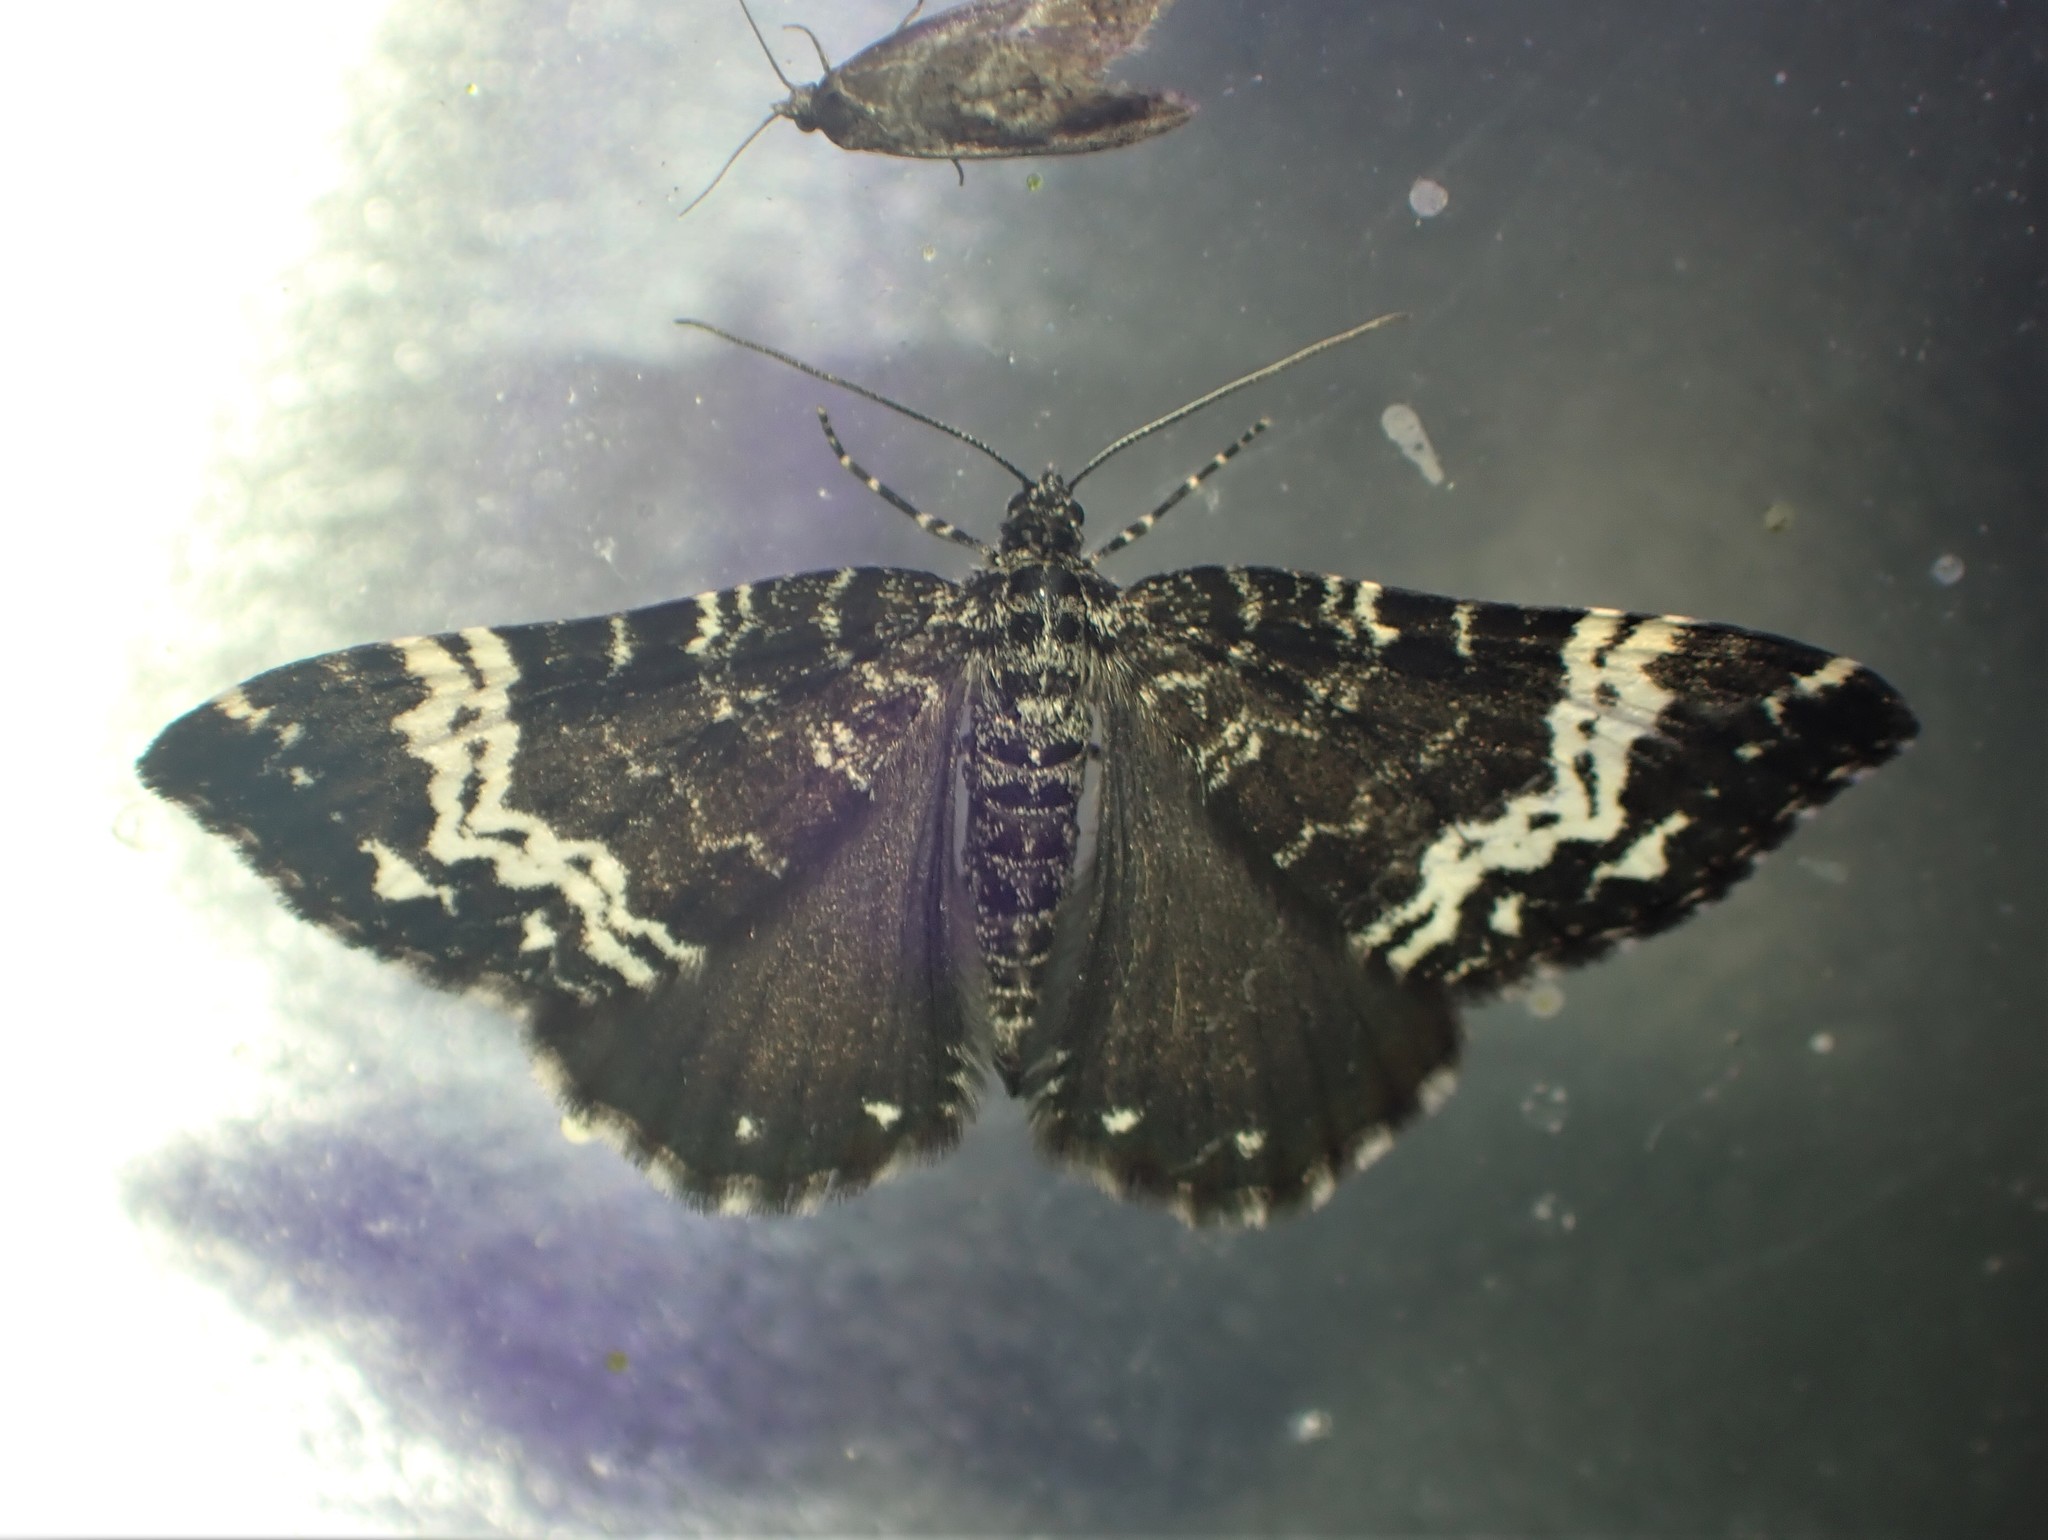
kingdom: Animalia
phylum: Arthropoda
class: Insecta
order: Lepidoptera
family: Geometridae
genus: Rheumaptera
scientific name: Rheumaptera
